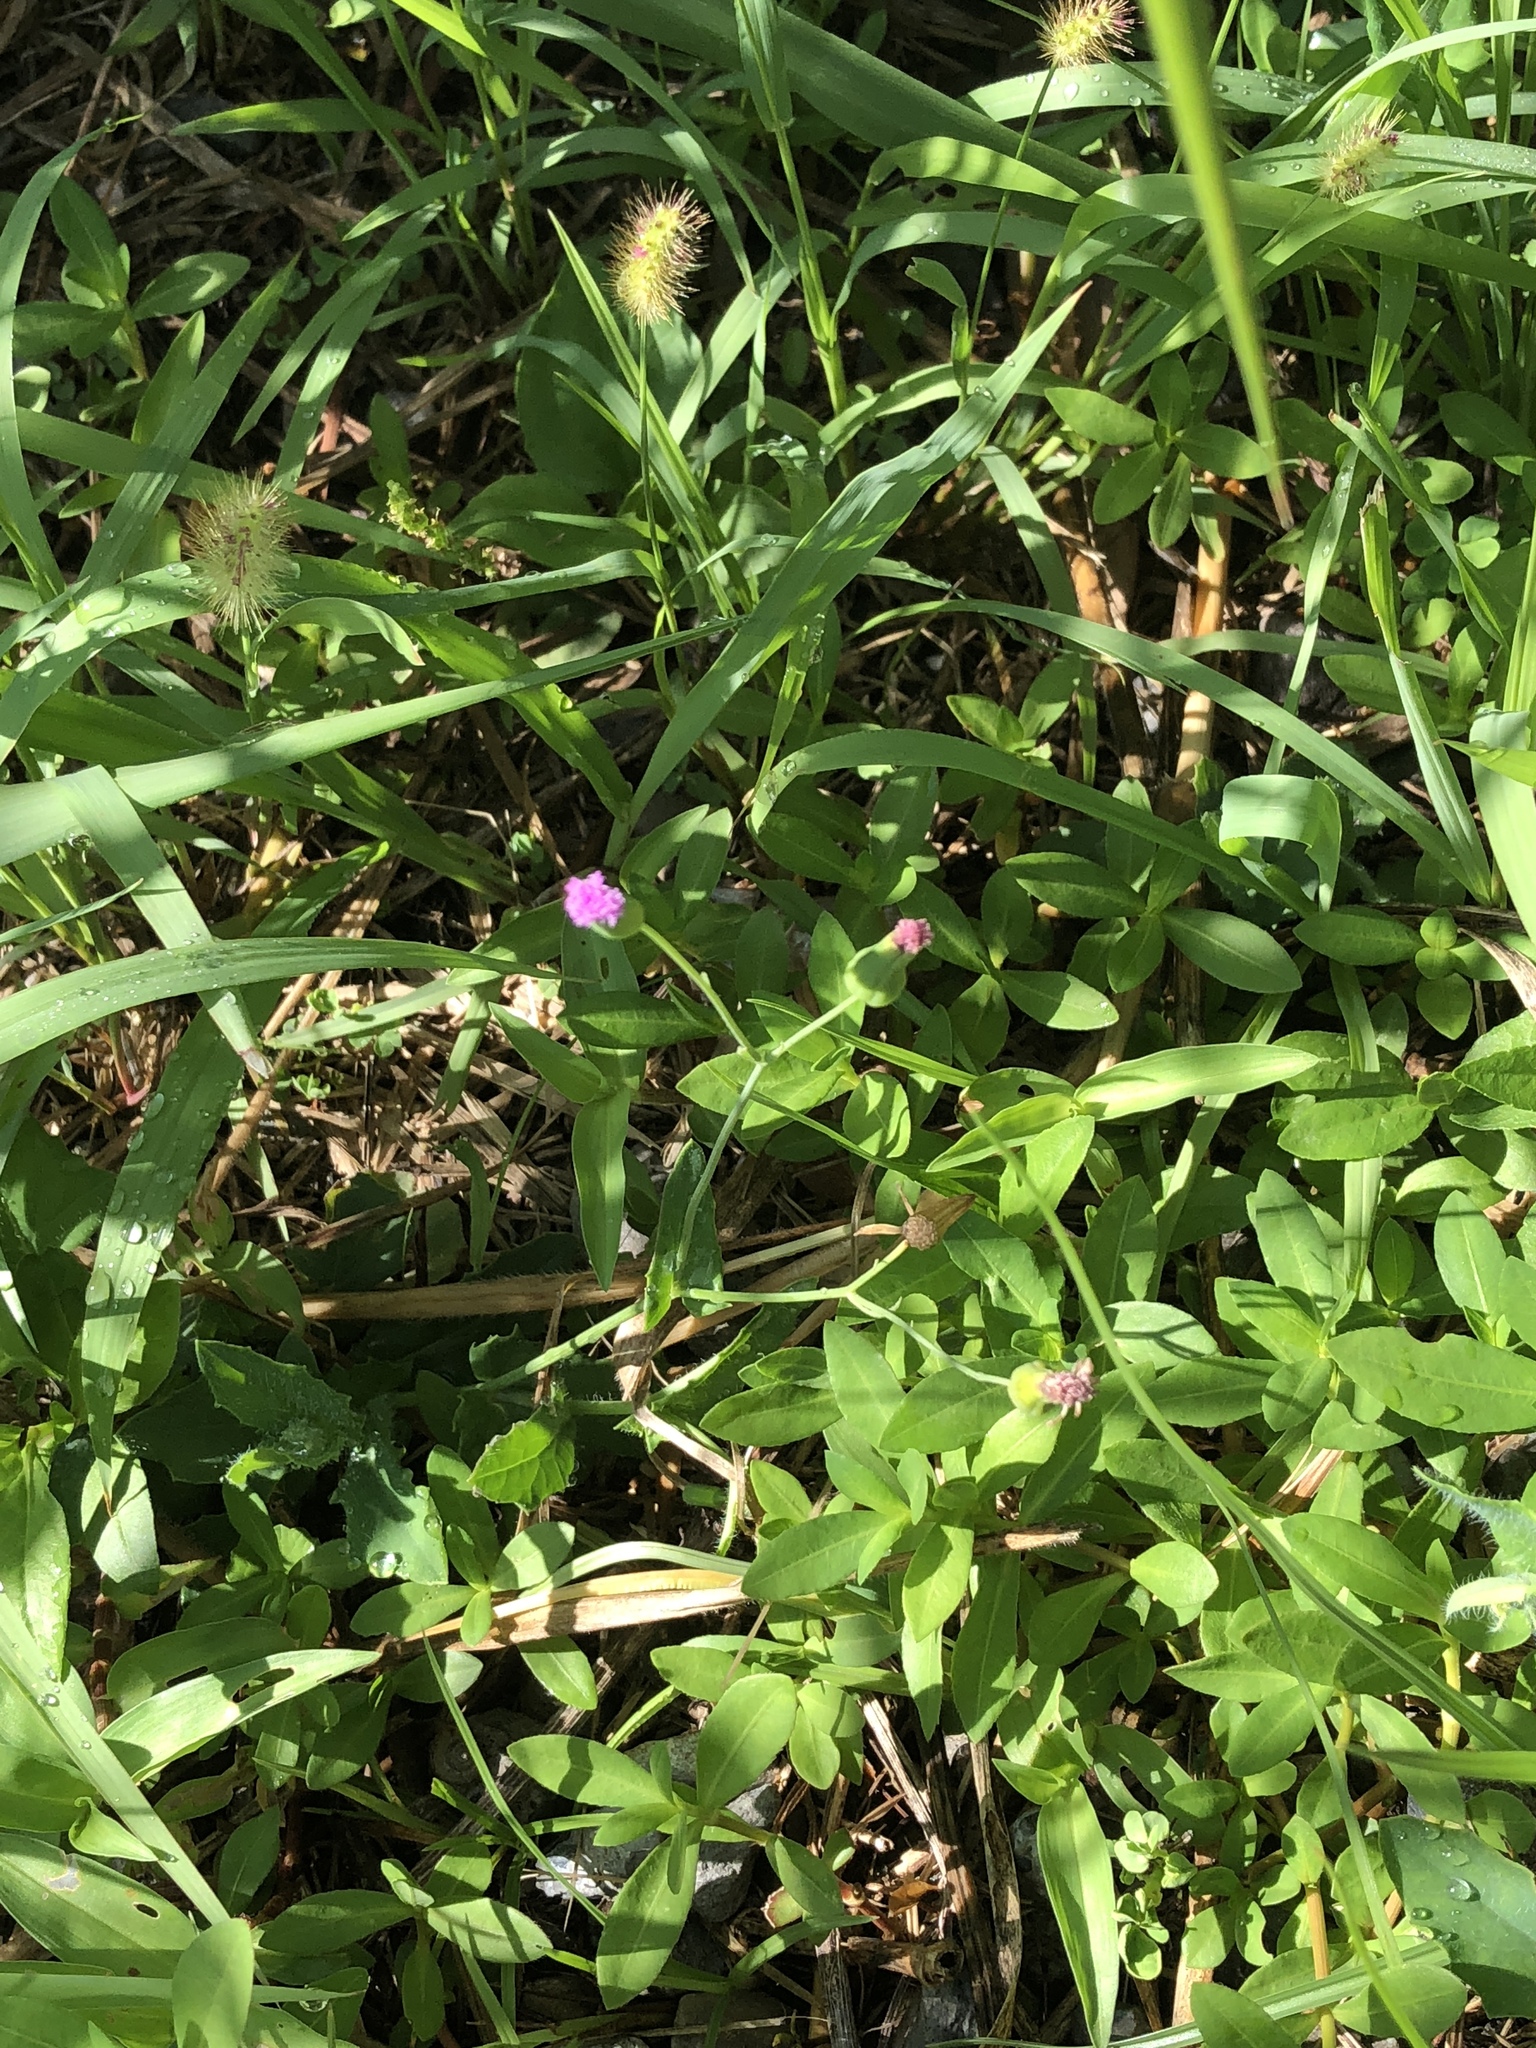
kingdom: Plantae
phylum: Tracheophyta
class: Magnoliopsida
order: Asterales
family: Asteraceae
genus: Emilia
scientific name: Emilia javanica
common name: Tassel-flower
